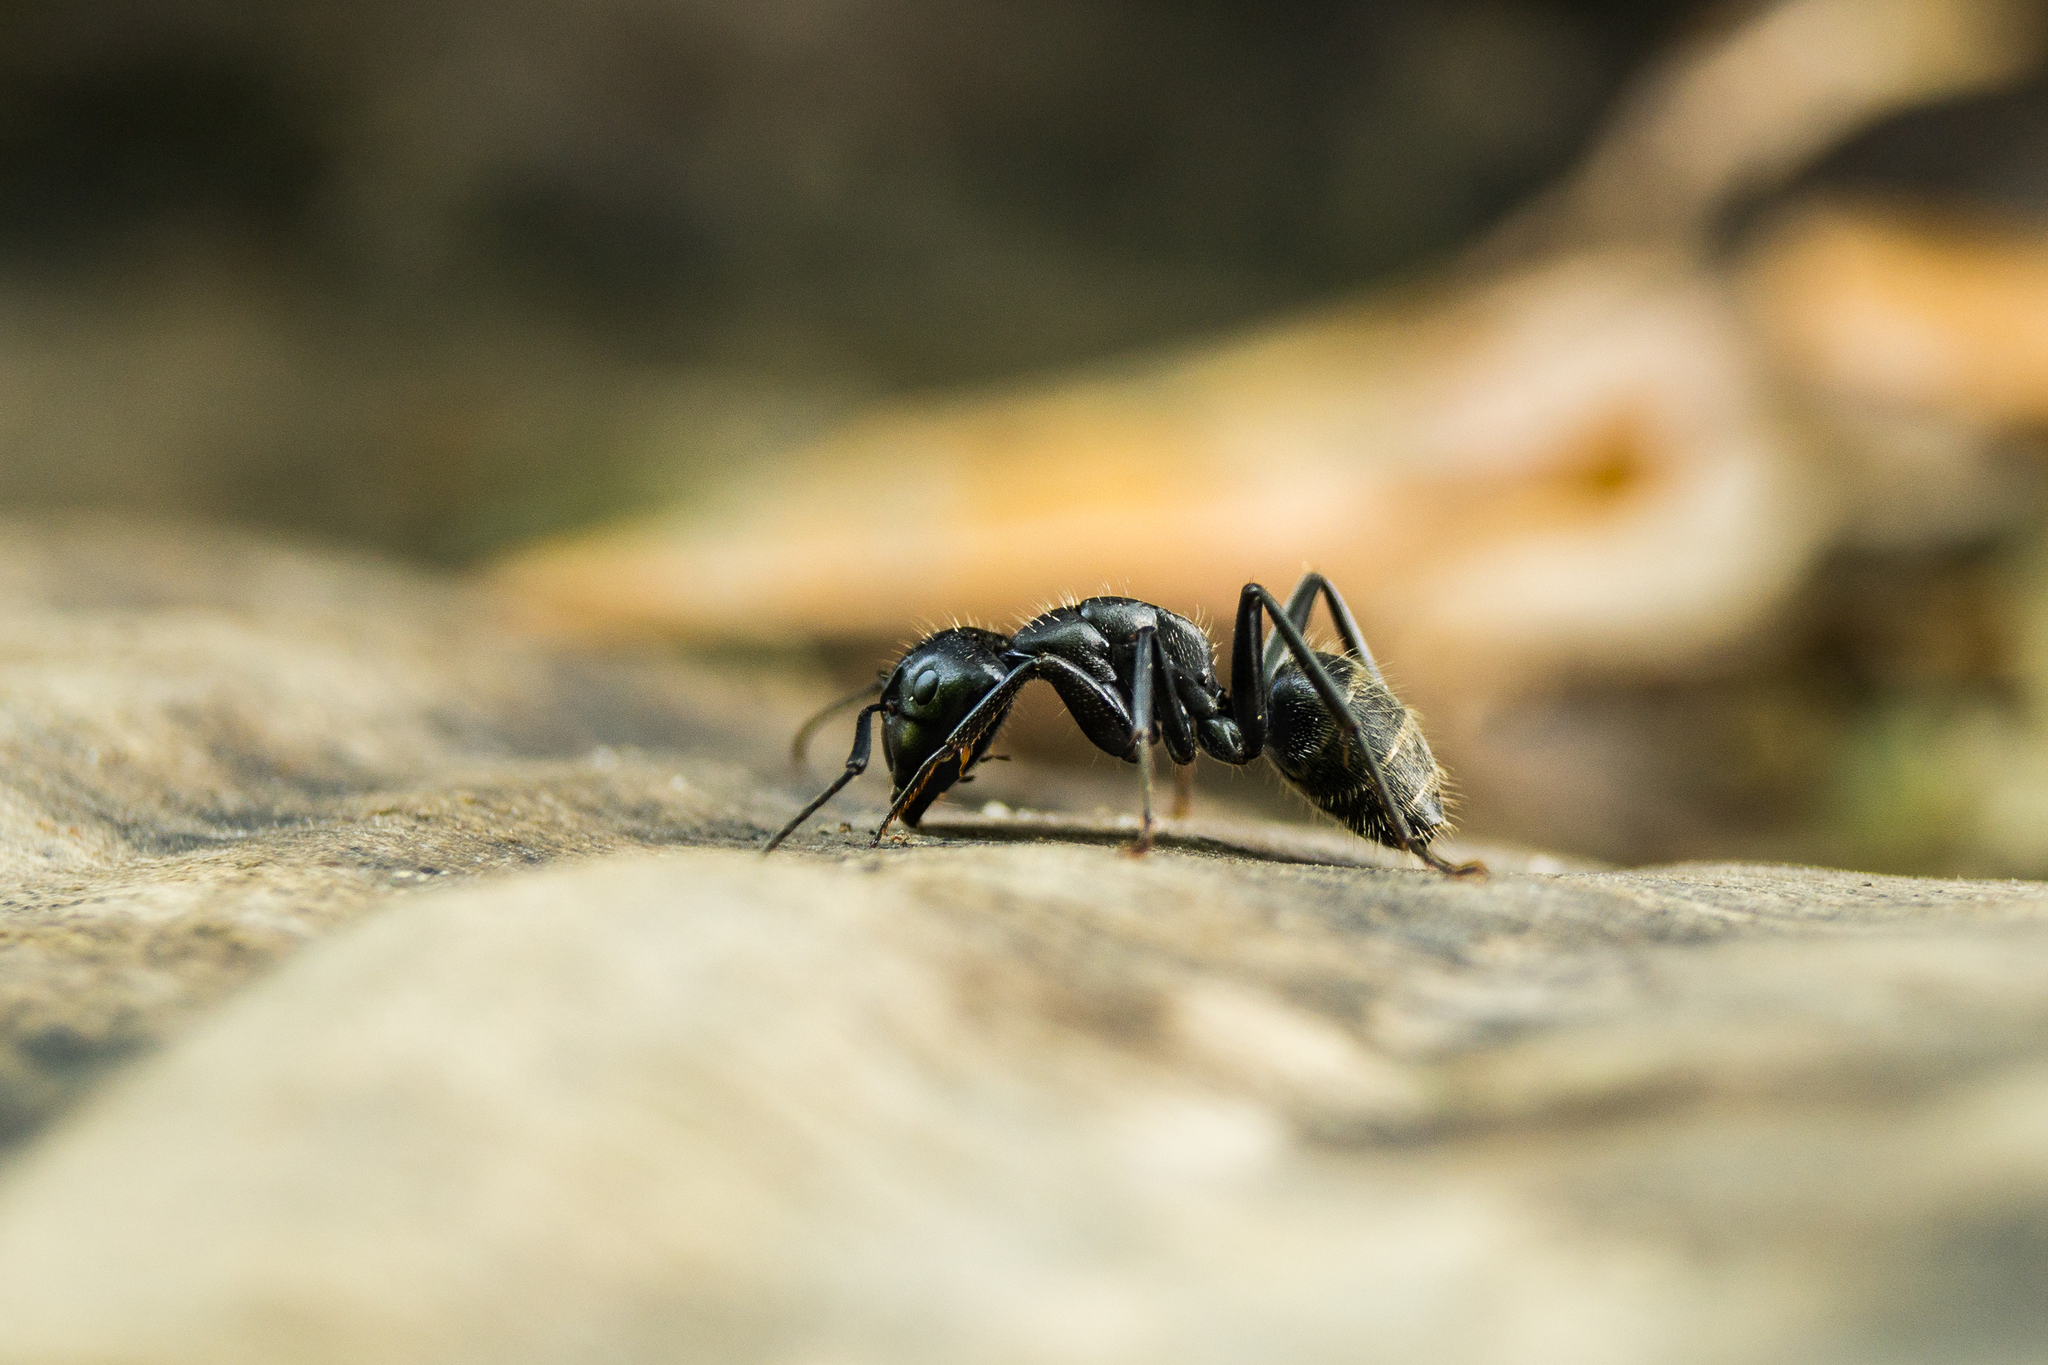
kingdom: Animalia
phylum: Arthropoda
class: Insecta
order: Hymenoptera
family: Formicidae
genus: Camponotus
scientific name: Camponotus vagus
